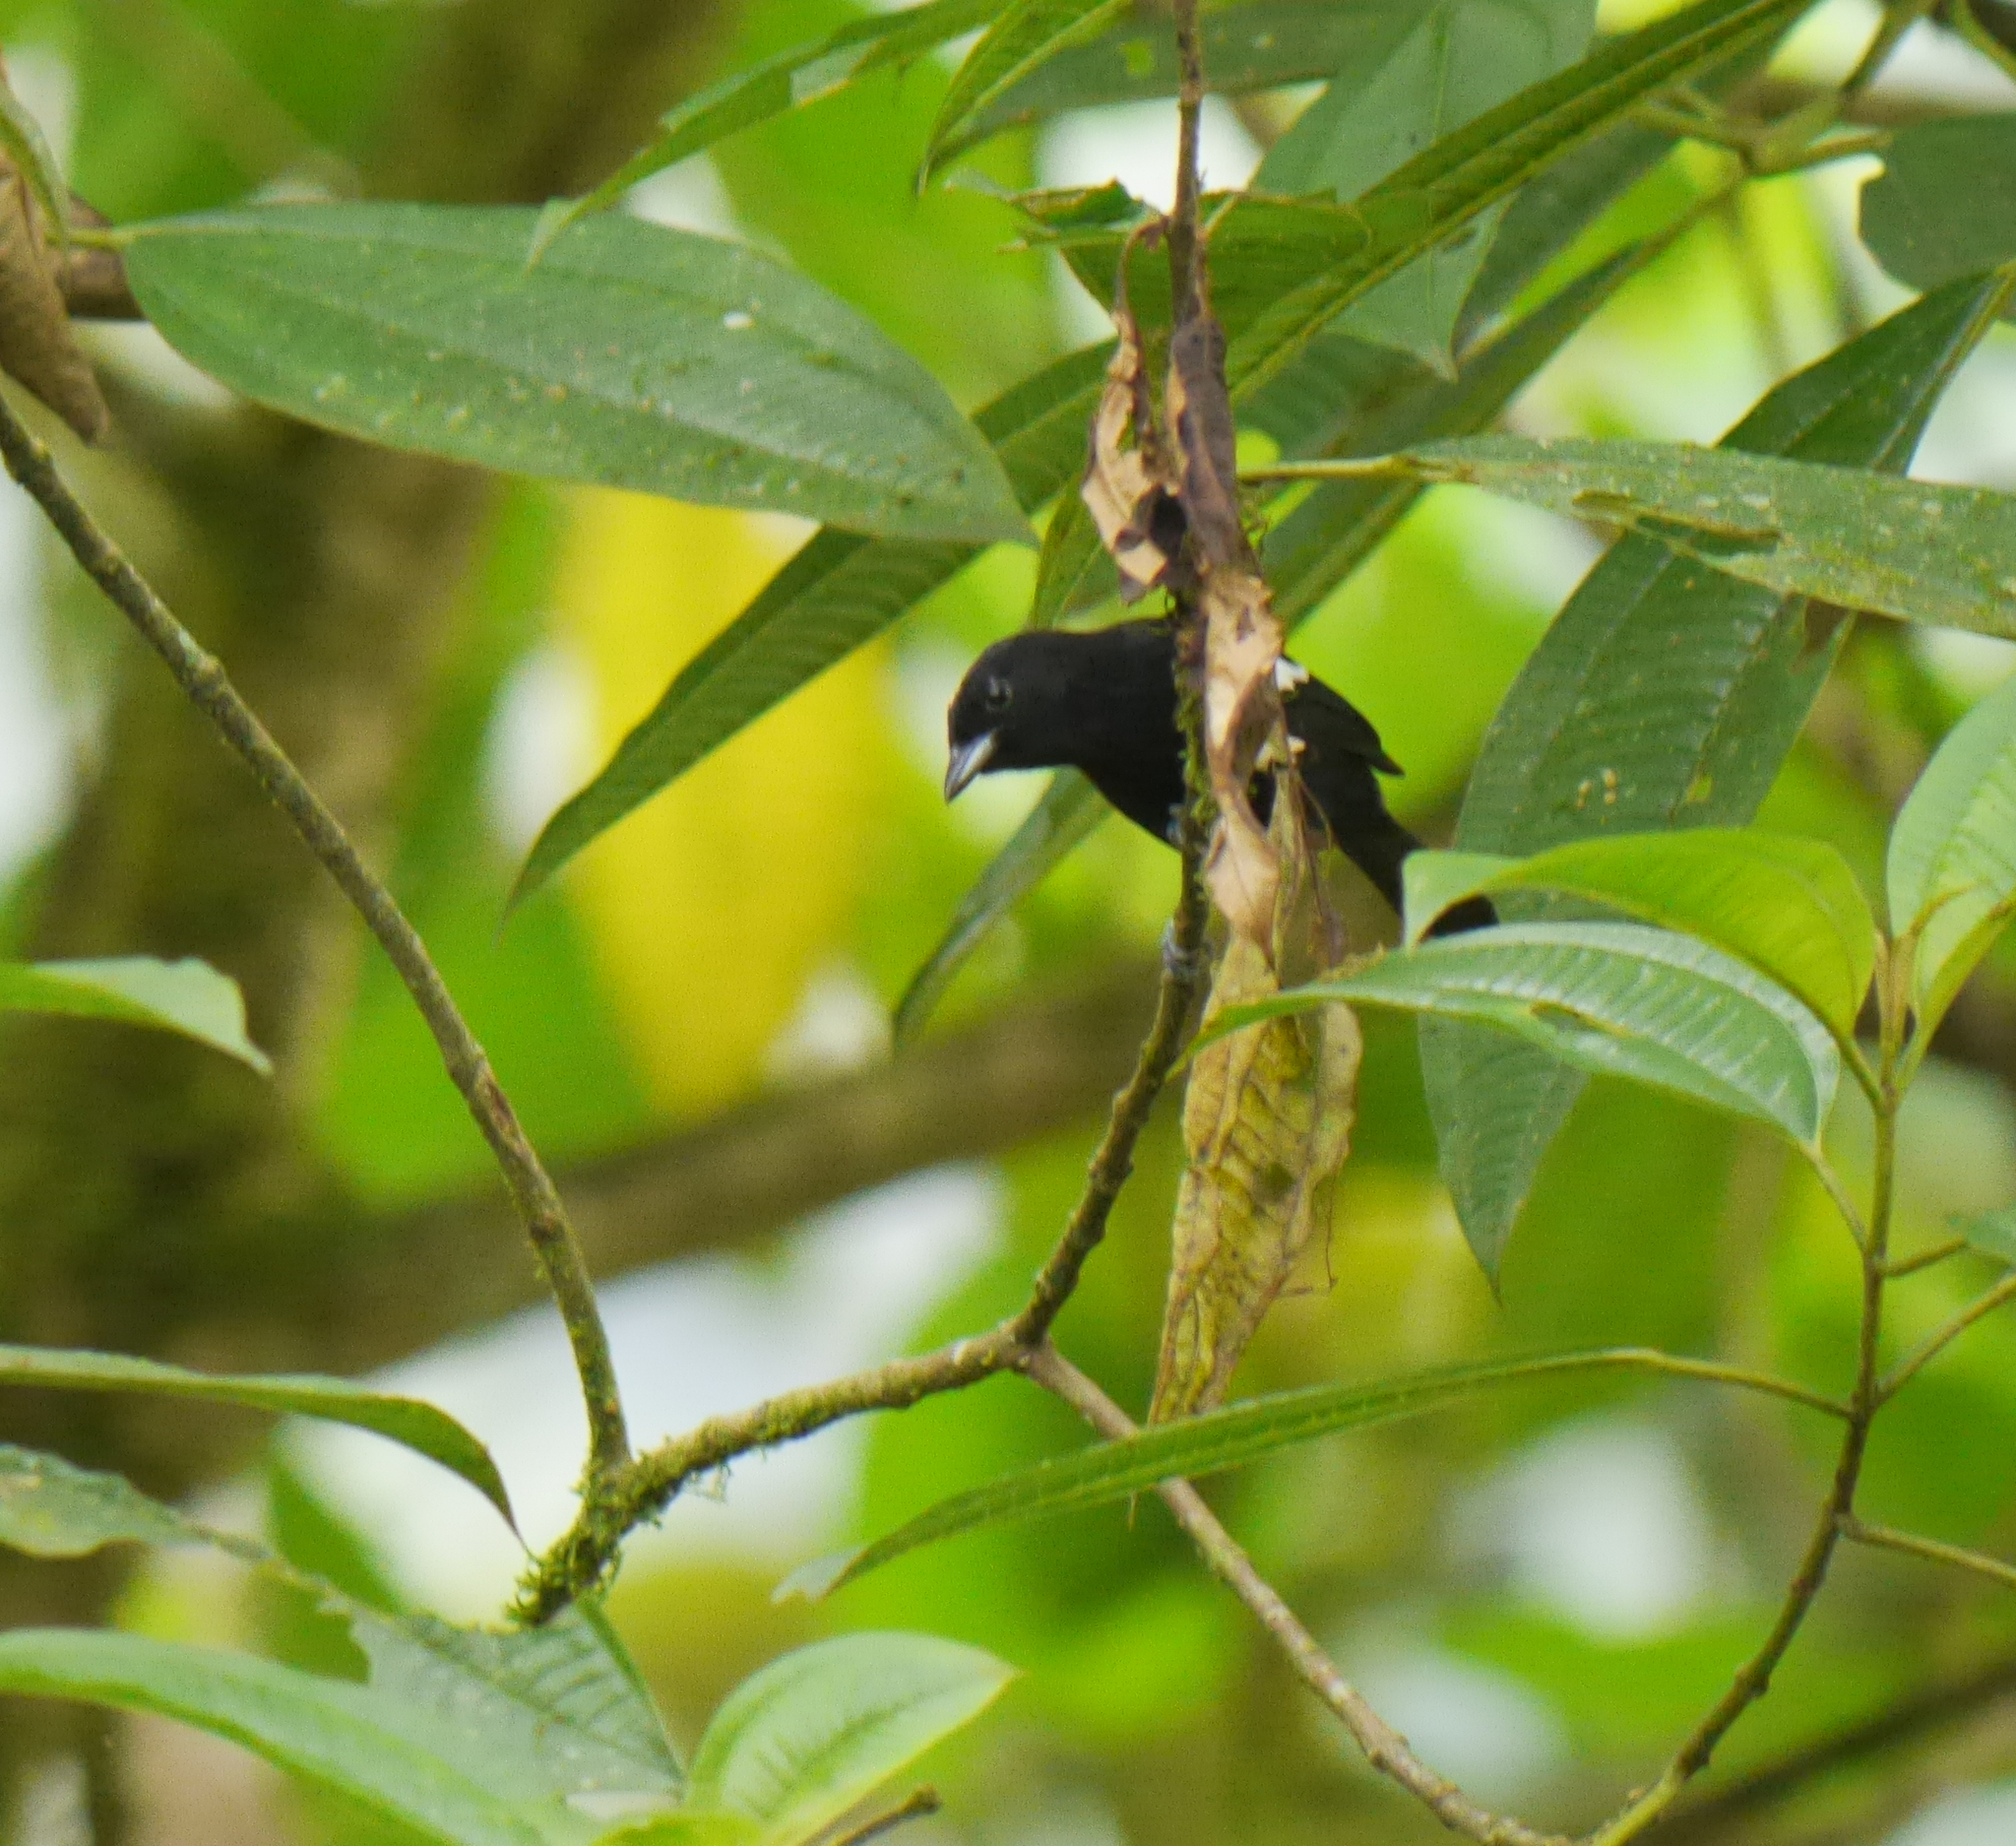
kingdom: Animalia
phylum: Chordata
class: Aves
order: Passeriformes
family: Thraupidae
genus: Loriotus
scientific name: Loriotus luctuosus
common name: White-shouldered tanager
